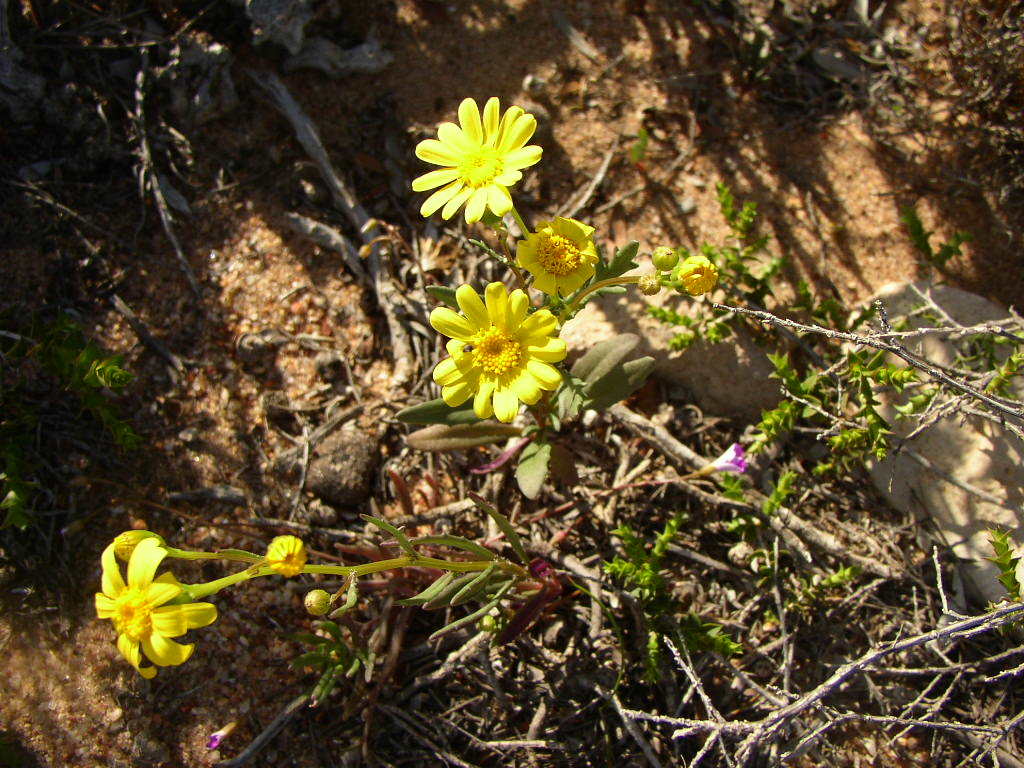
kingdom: Plantae
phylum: Tracheophyta
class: Magnoliopsida
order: Asterales
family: Asteraceae
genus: Senecio
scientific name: Senecio pinnatifolius
